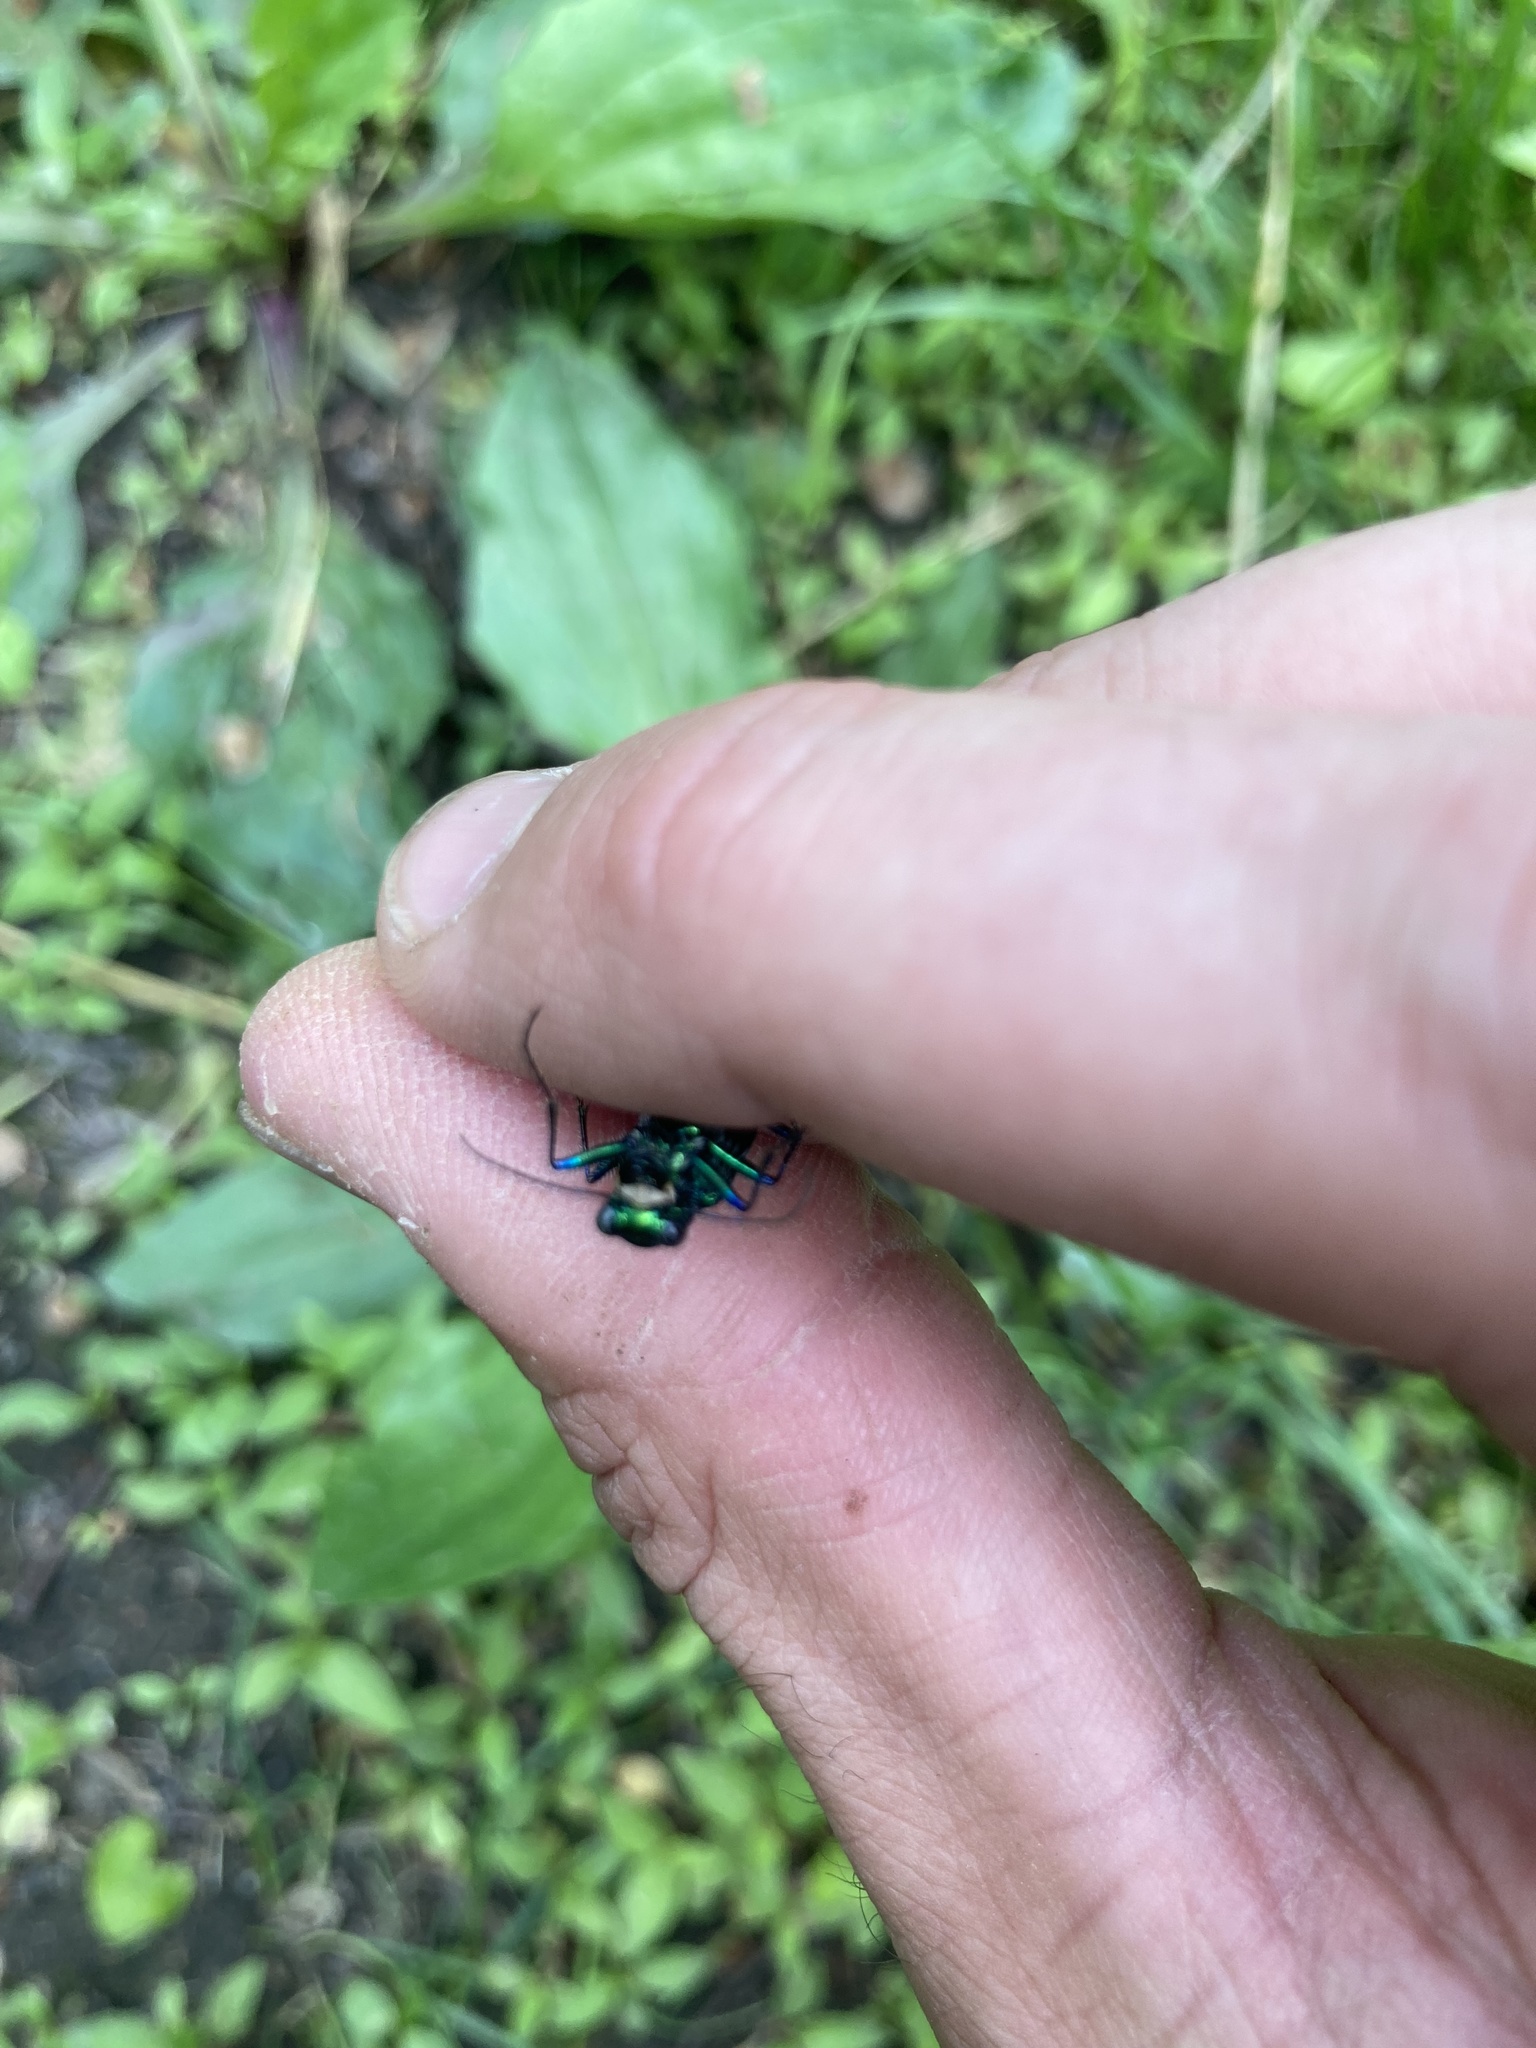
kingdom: Animalia
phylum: Arthropoda
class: Insecta
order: Coleoptera
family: Carabidae
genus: Cicindela
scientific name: Cicindela sexguttata
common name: Six-spotted tiger beetle
